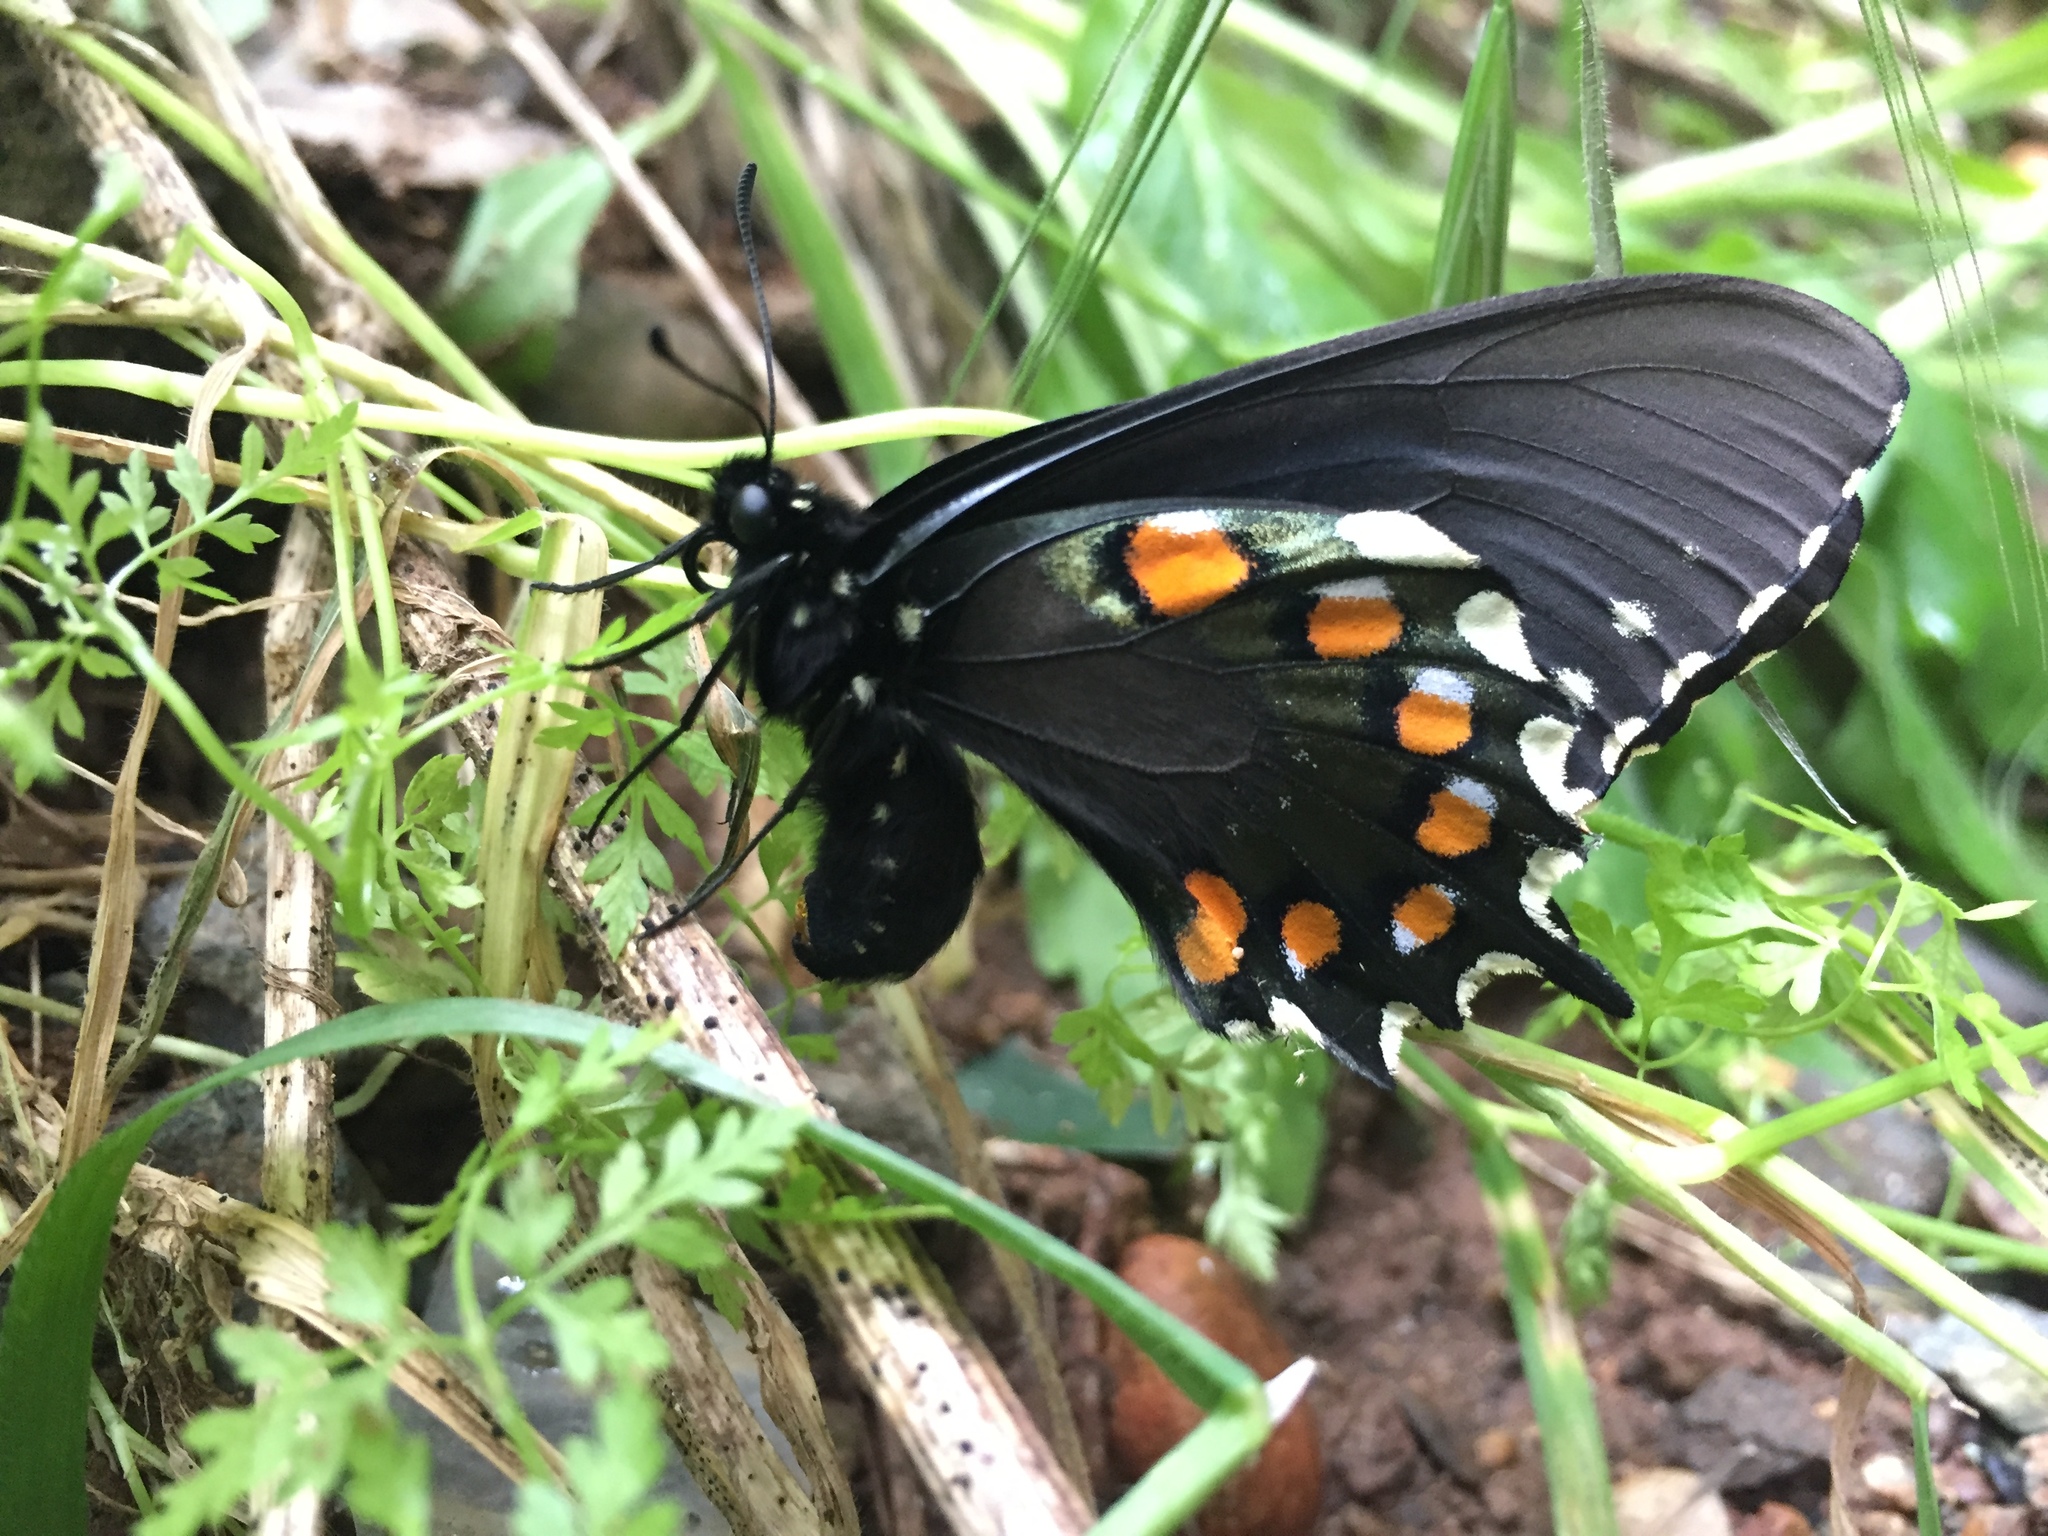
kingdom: Animalia
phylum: Arthropoda
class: Insecta
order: Lepidoptera
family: Papilionidae
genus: Battus
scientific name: Battus philenor
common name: Pipevine swallowtail
